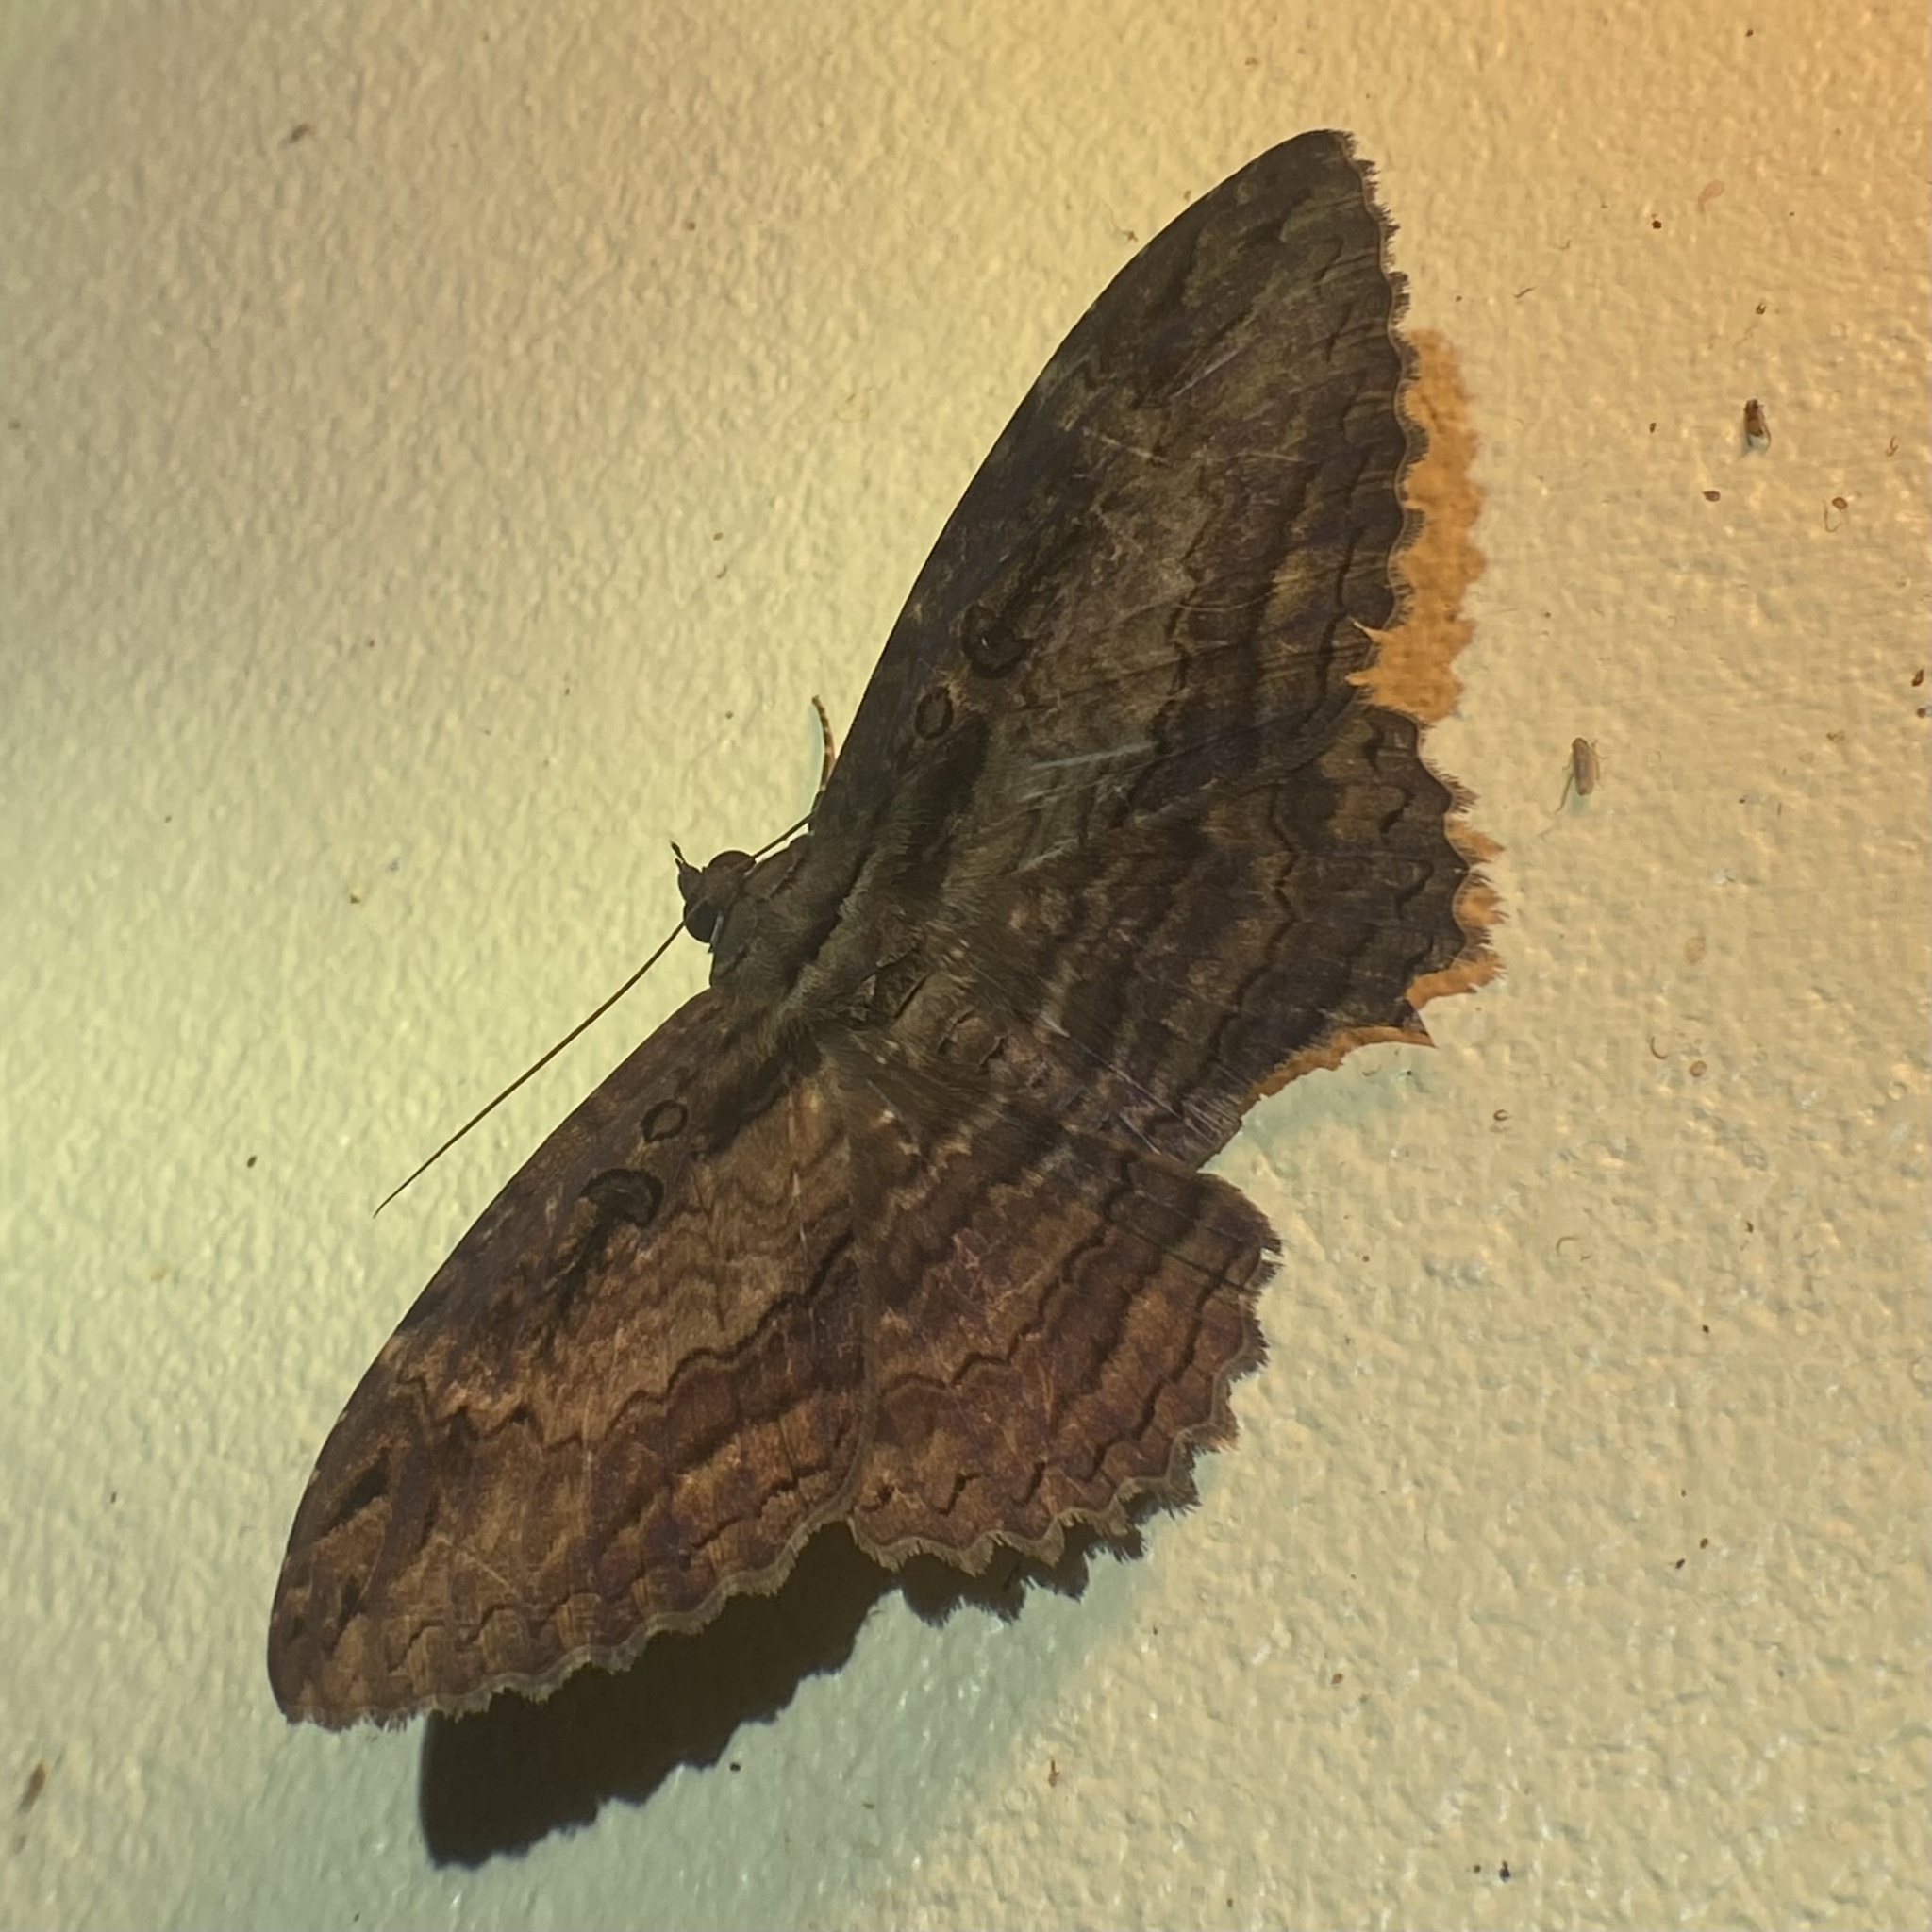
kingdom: Animalia
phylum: Arthropoda
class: Insecta
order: Lepidoptera
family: Erebidae
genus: Feigeria
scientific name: Feigeria buteo
